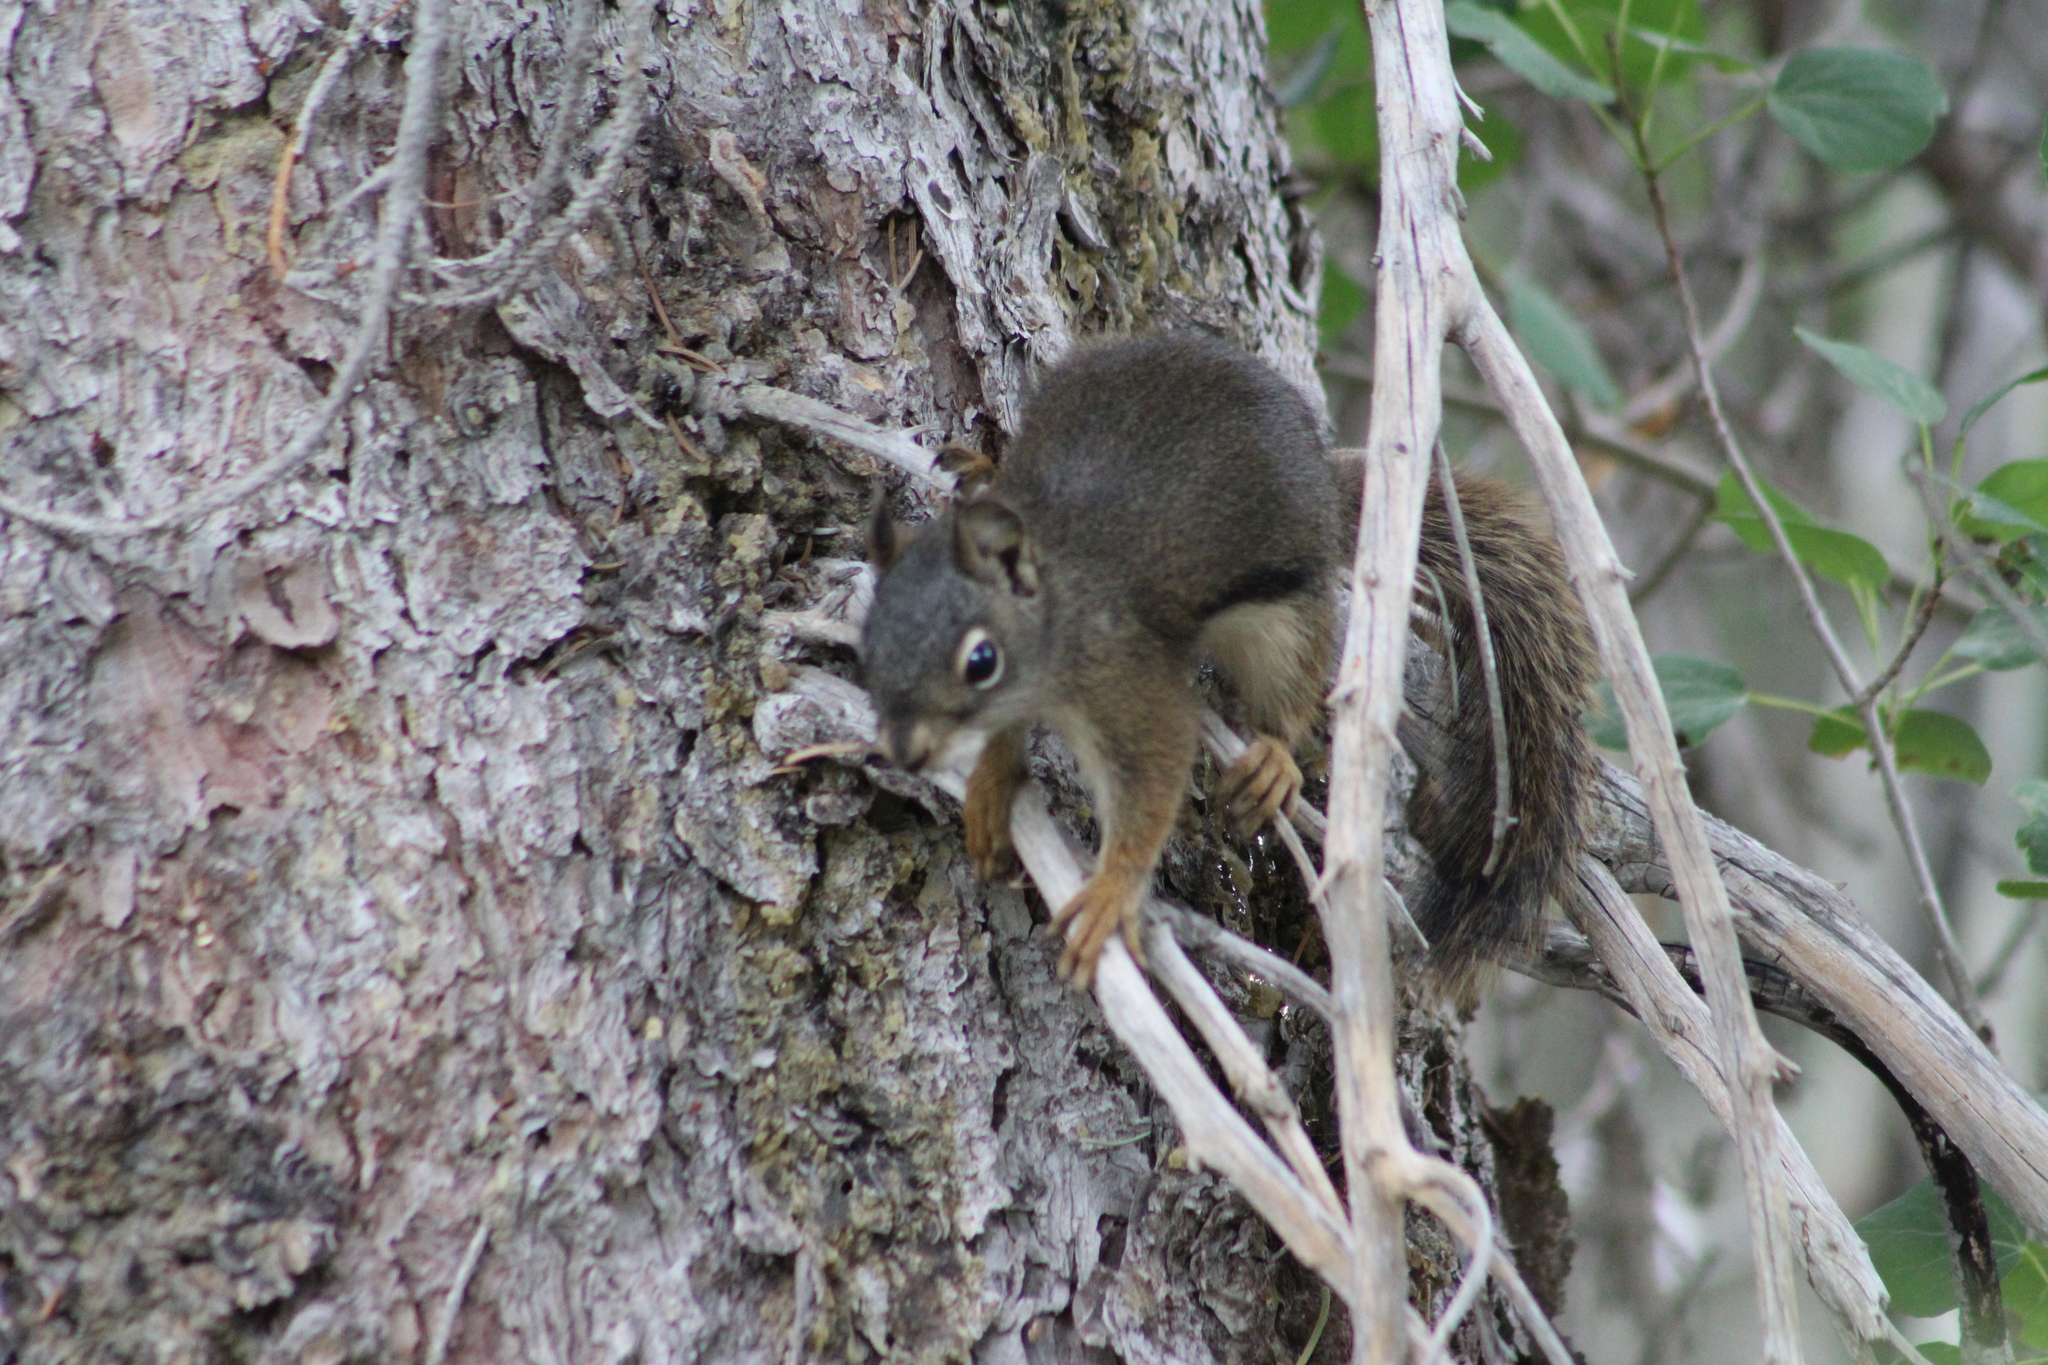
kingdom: Animalia
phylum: Chordata
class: Mammalia
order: Rodentia
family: Sciuridae
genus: Tamiasciurus
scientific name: Tamiasciurus hudsonicus
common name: Red squirrel
